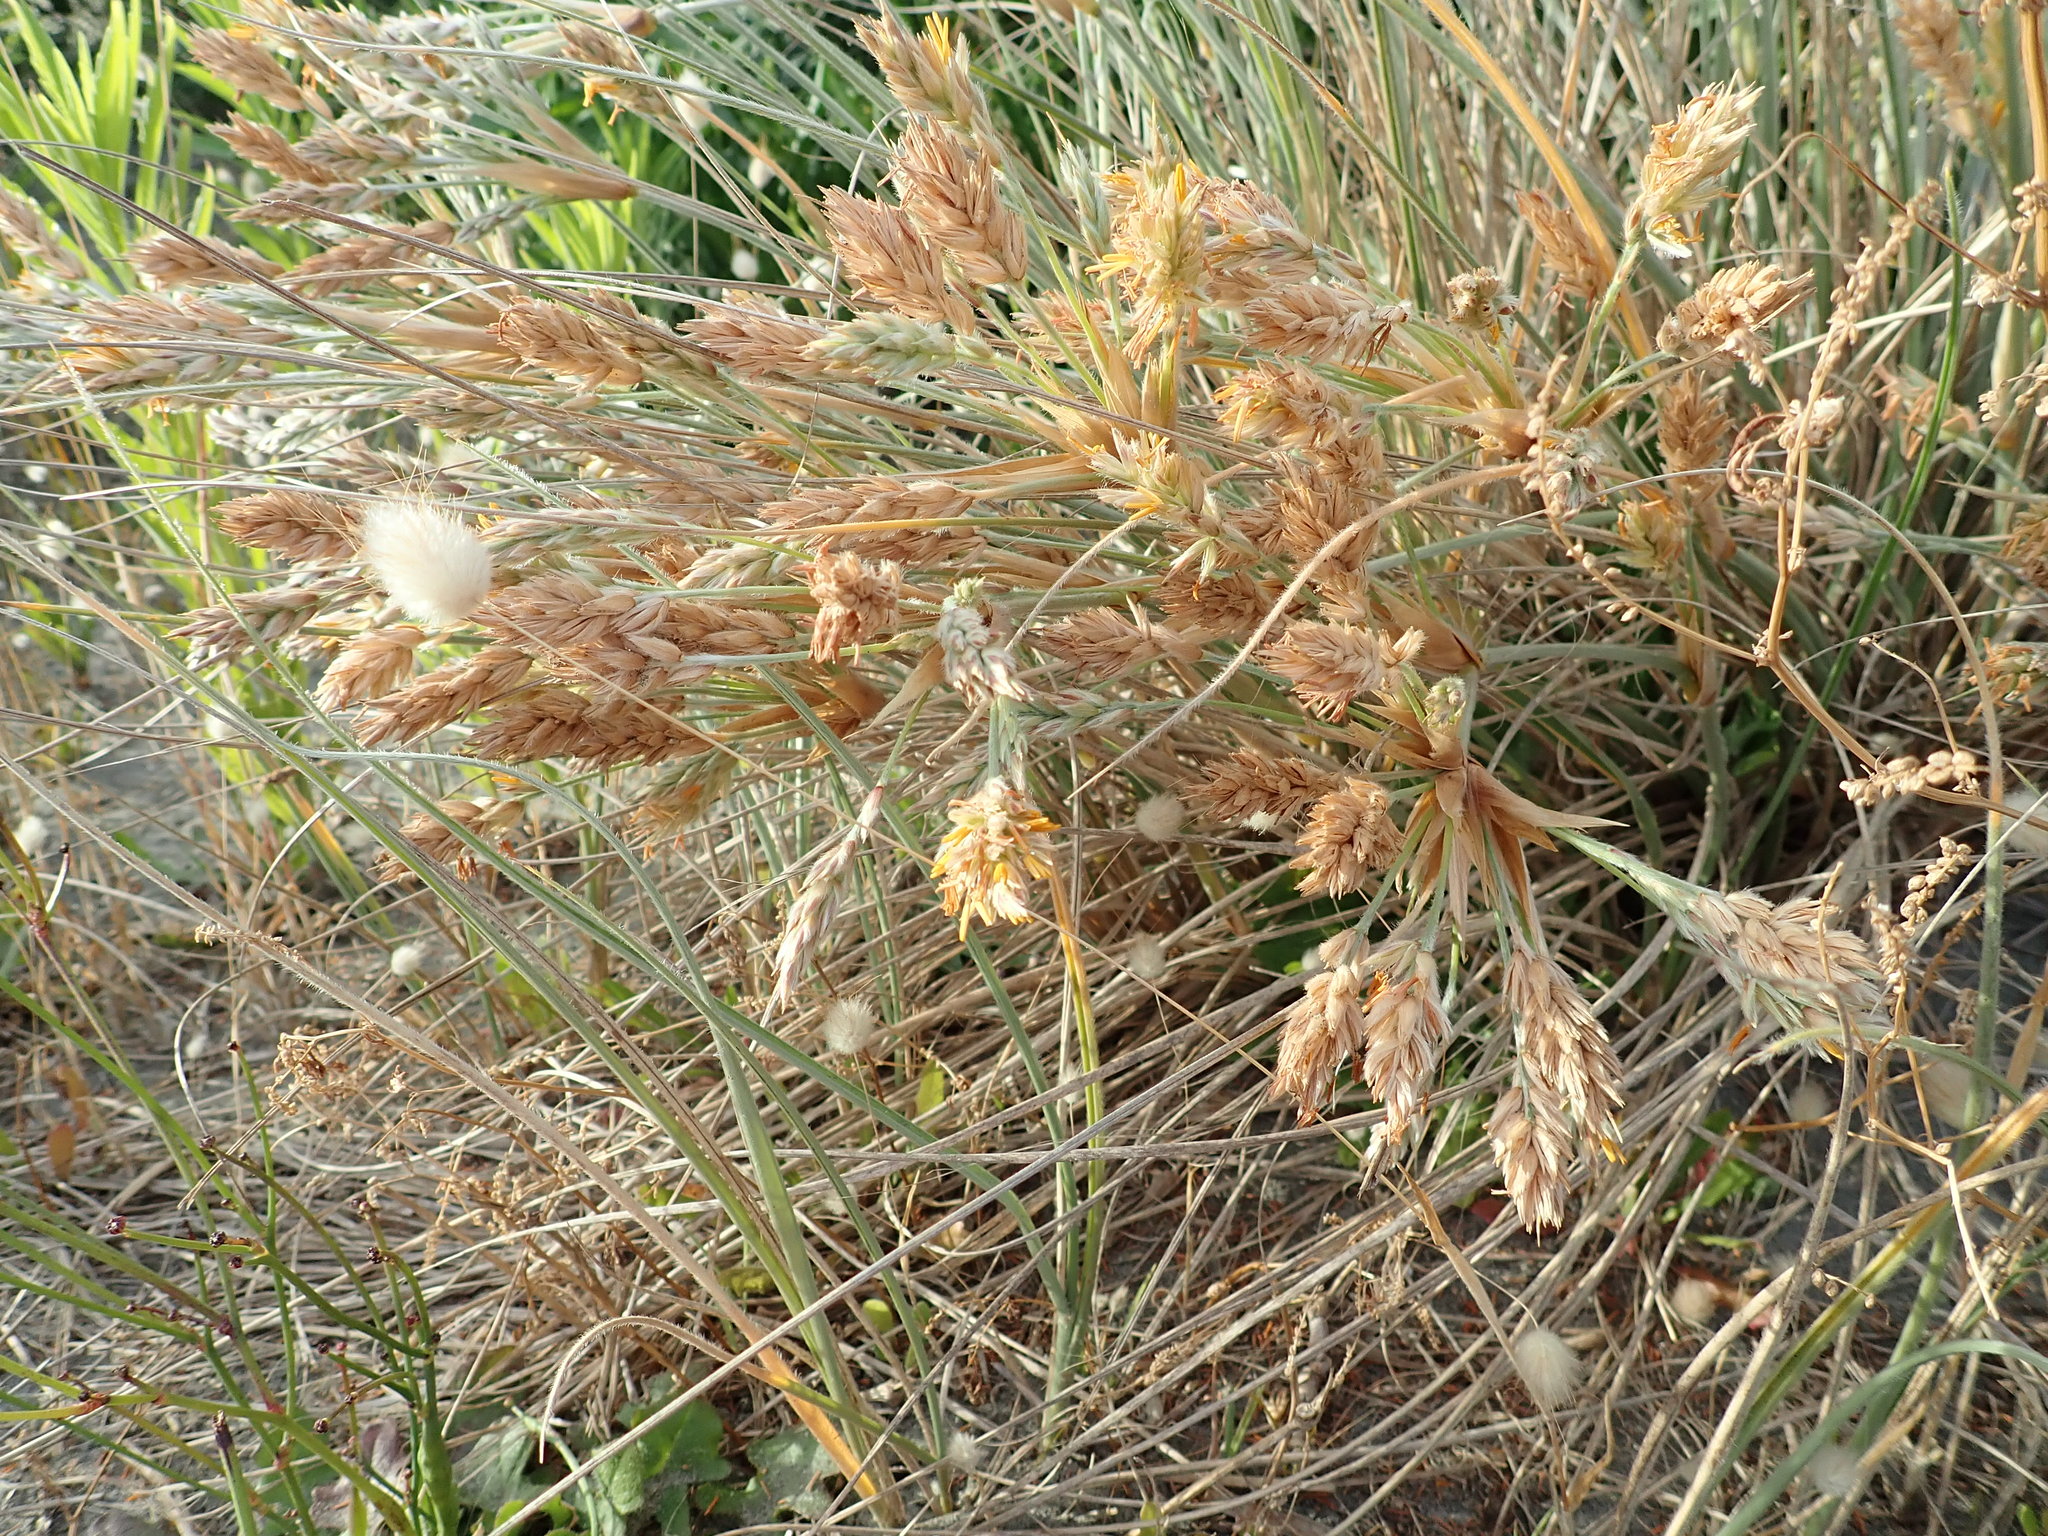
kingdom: Plantae
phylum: Tracheophyta
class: Liliopsida
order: Poales
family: Poaceae
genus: Spinifex
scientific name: Spinifex sericeus
